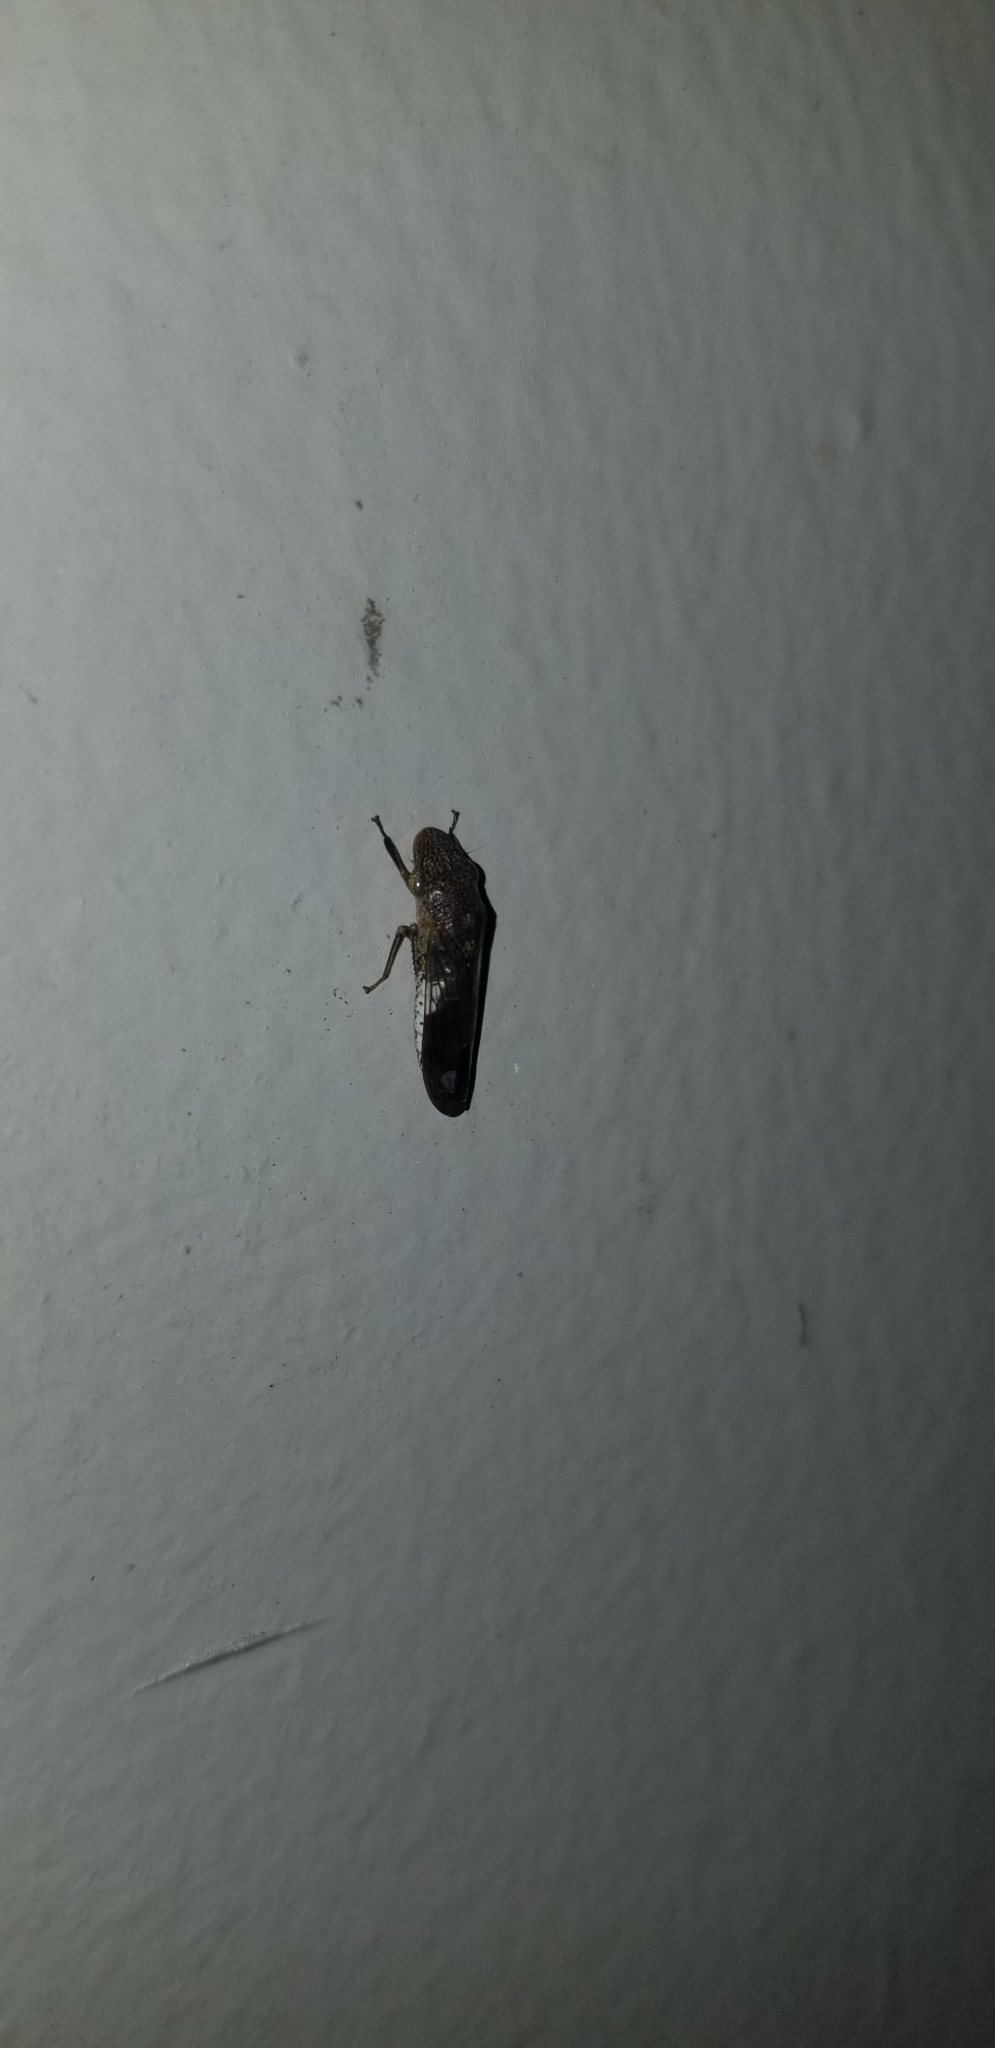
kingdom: Animalia
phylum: Arthropoda
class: Insecta
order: Hemiptera
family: Cicadellidae
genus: Homalodisca
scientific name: Homalodisca vitripennis
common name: Glassy-winged sharpshooter
